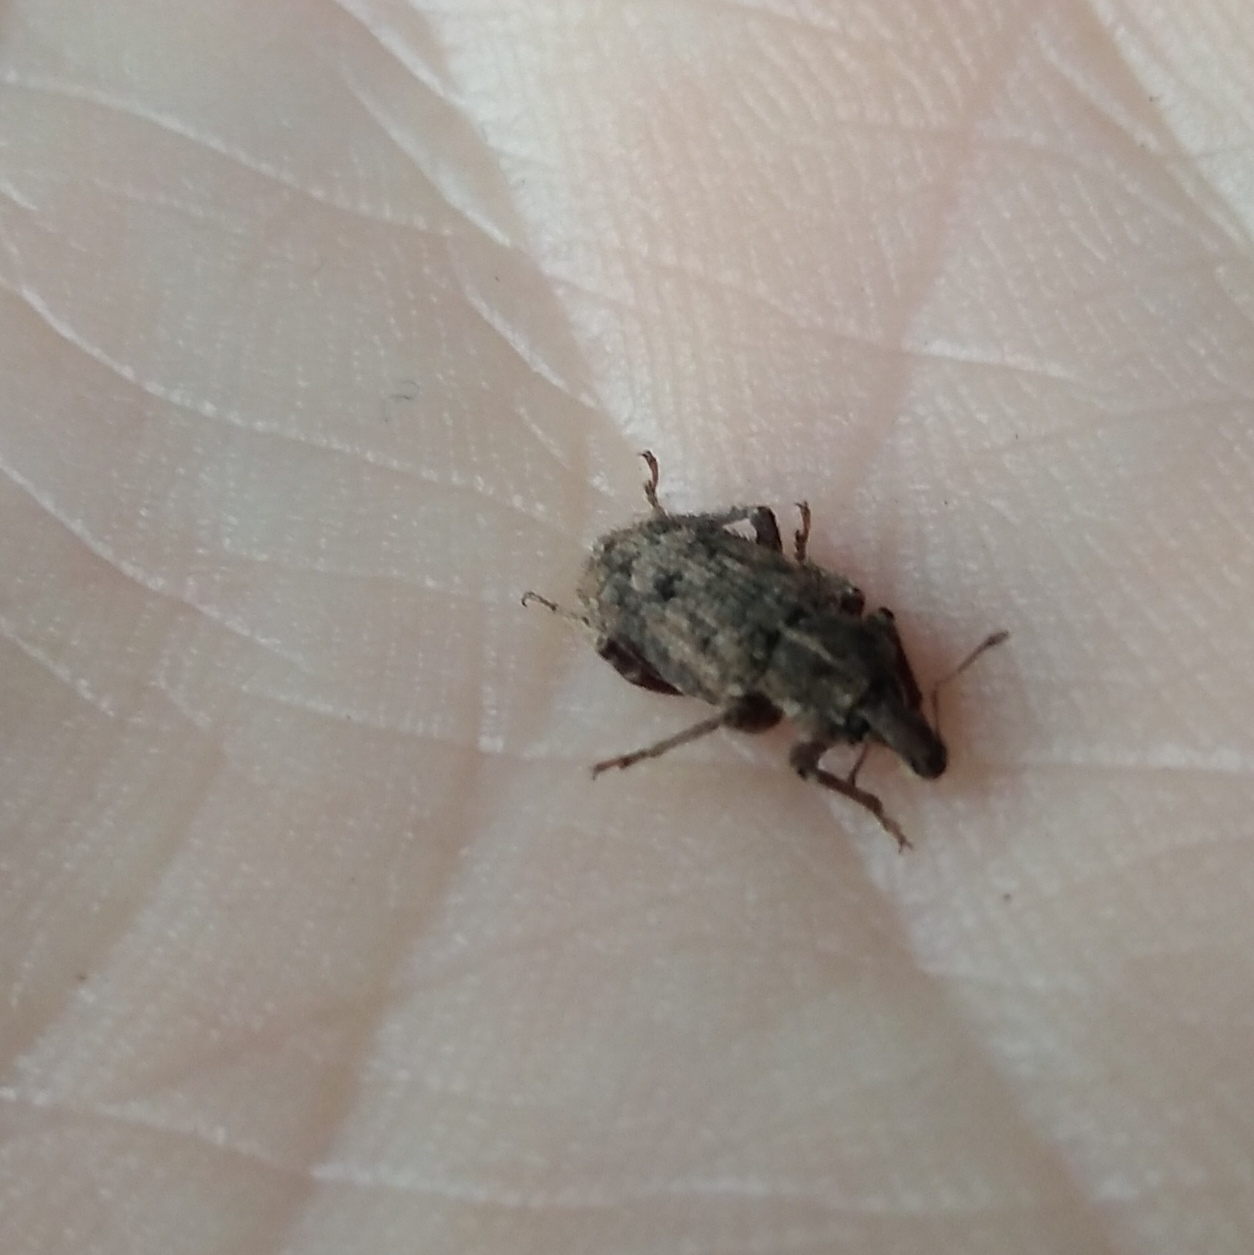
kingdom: Animalia
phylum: Arthropoda
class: Insecta
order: Coleoptera
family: Curculionidae
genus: Listroderes
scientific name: Listroderes costirostris
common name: Weevil
